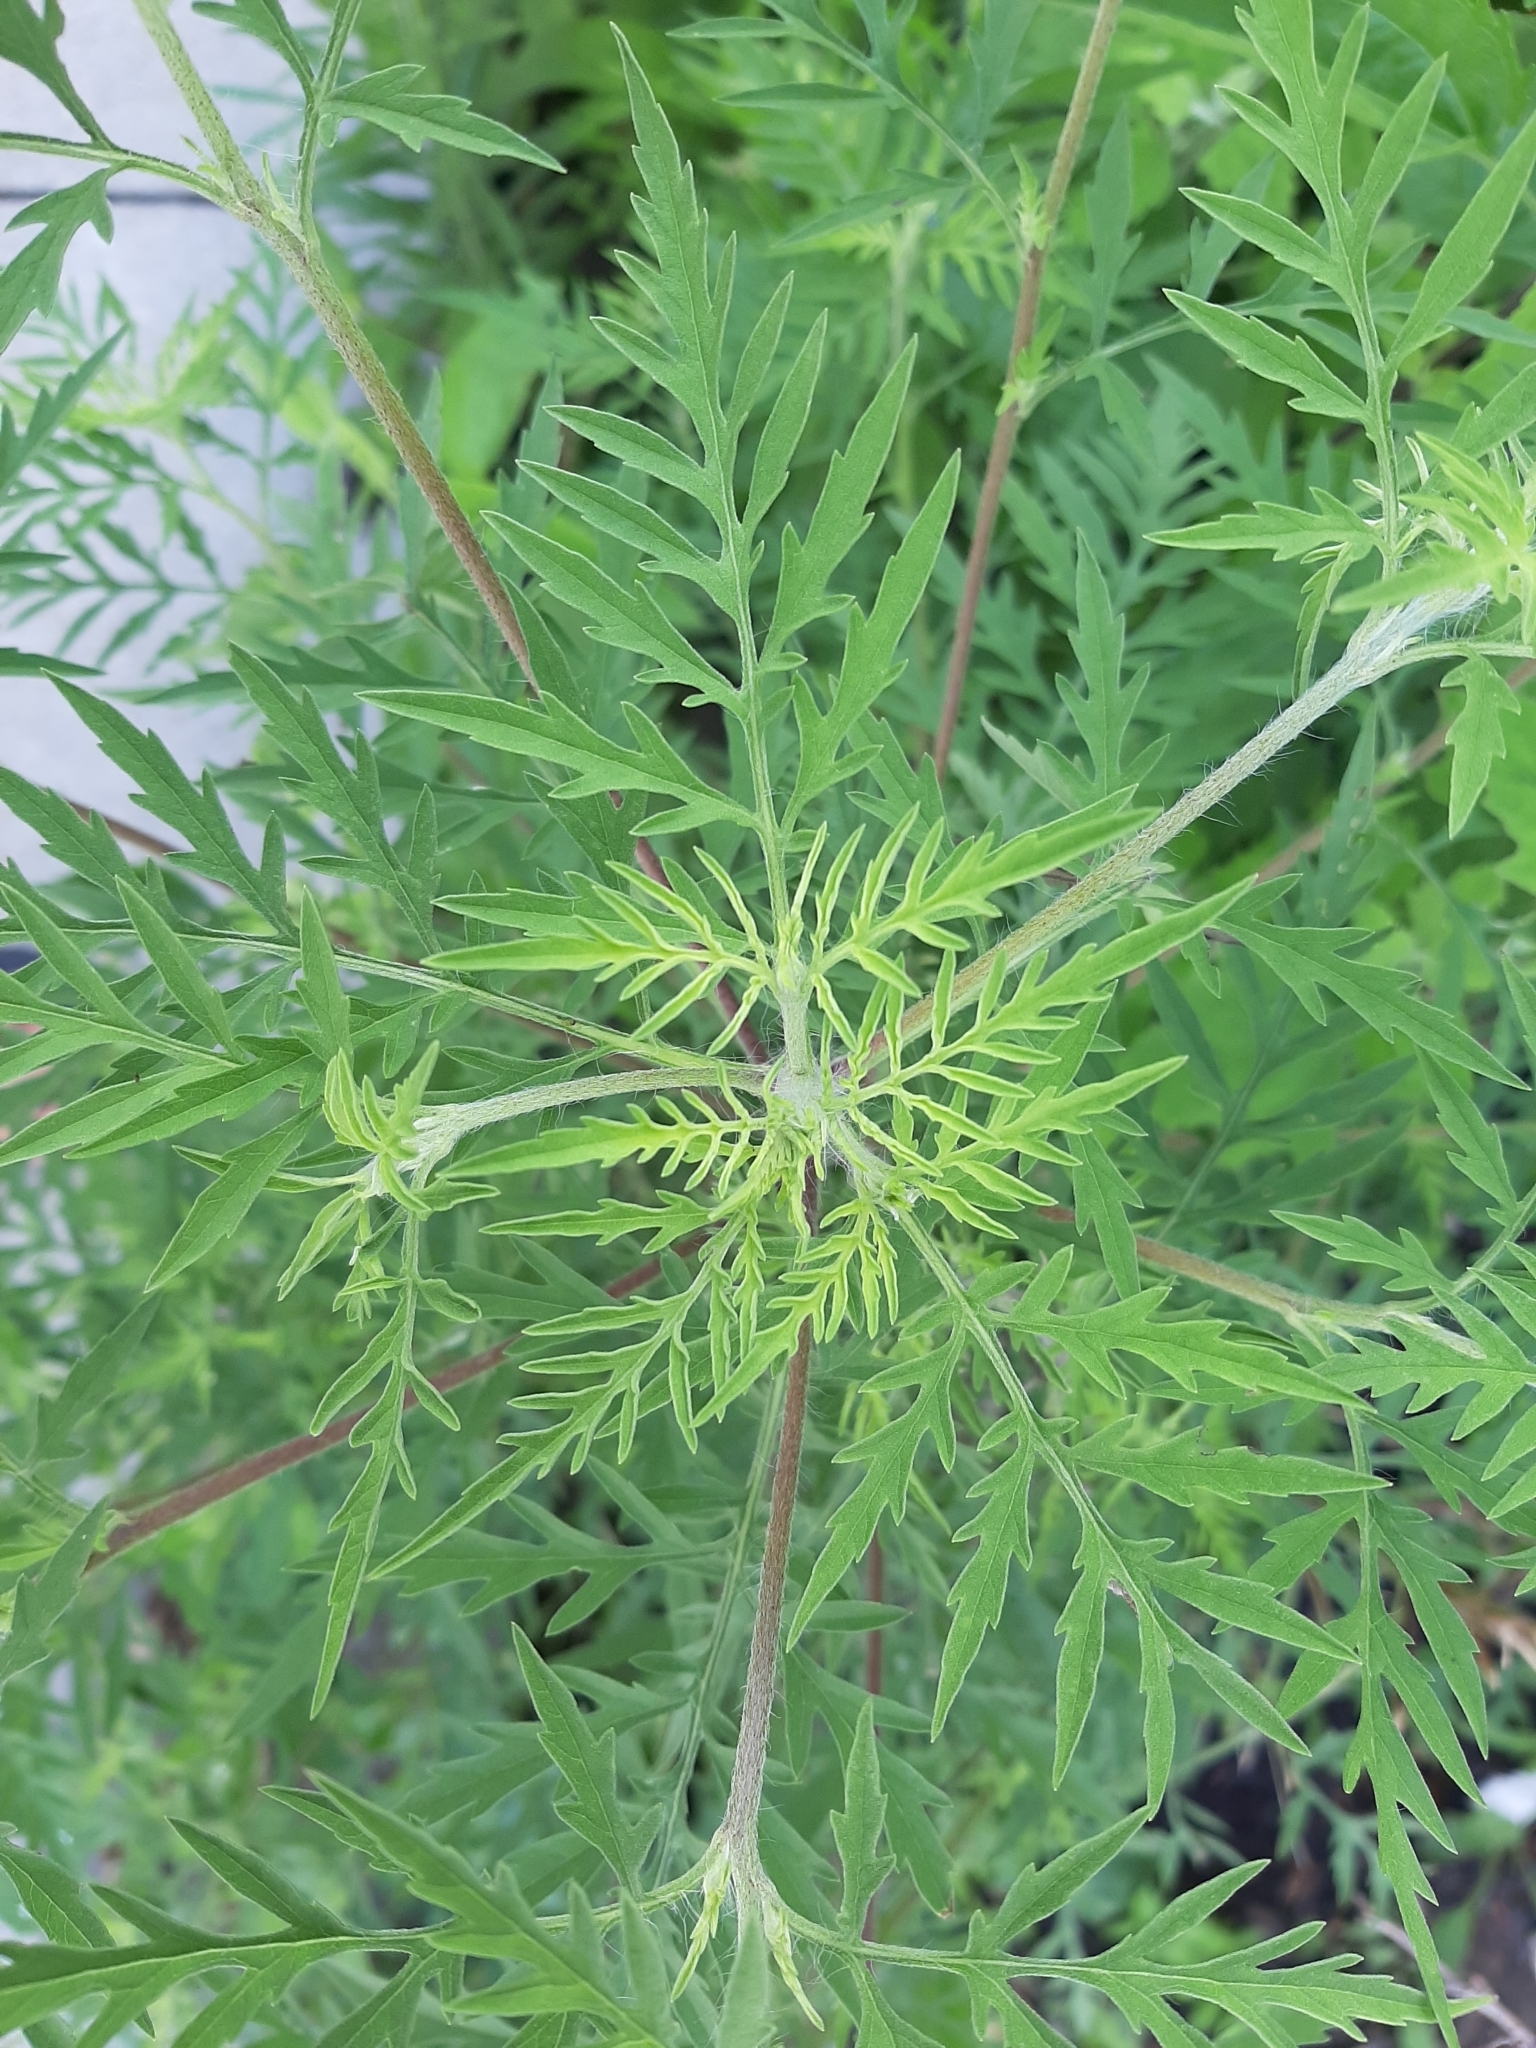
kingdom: Plantae
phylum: Tracheophyta
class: Magnoliopsida
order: Asterales
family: Asteraceae
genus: Ambrosia
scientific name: Ambrosia artemisiifolia
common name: Annual ragweed
